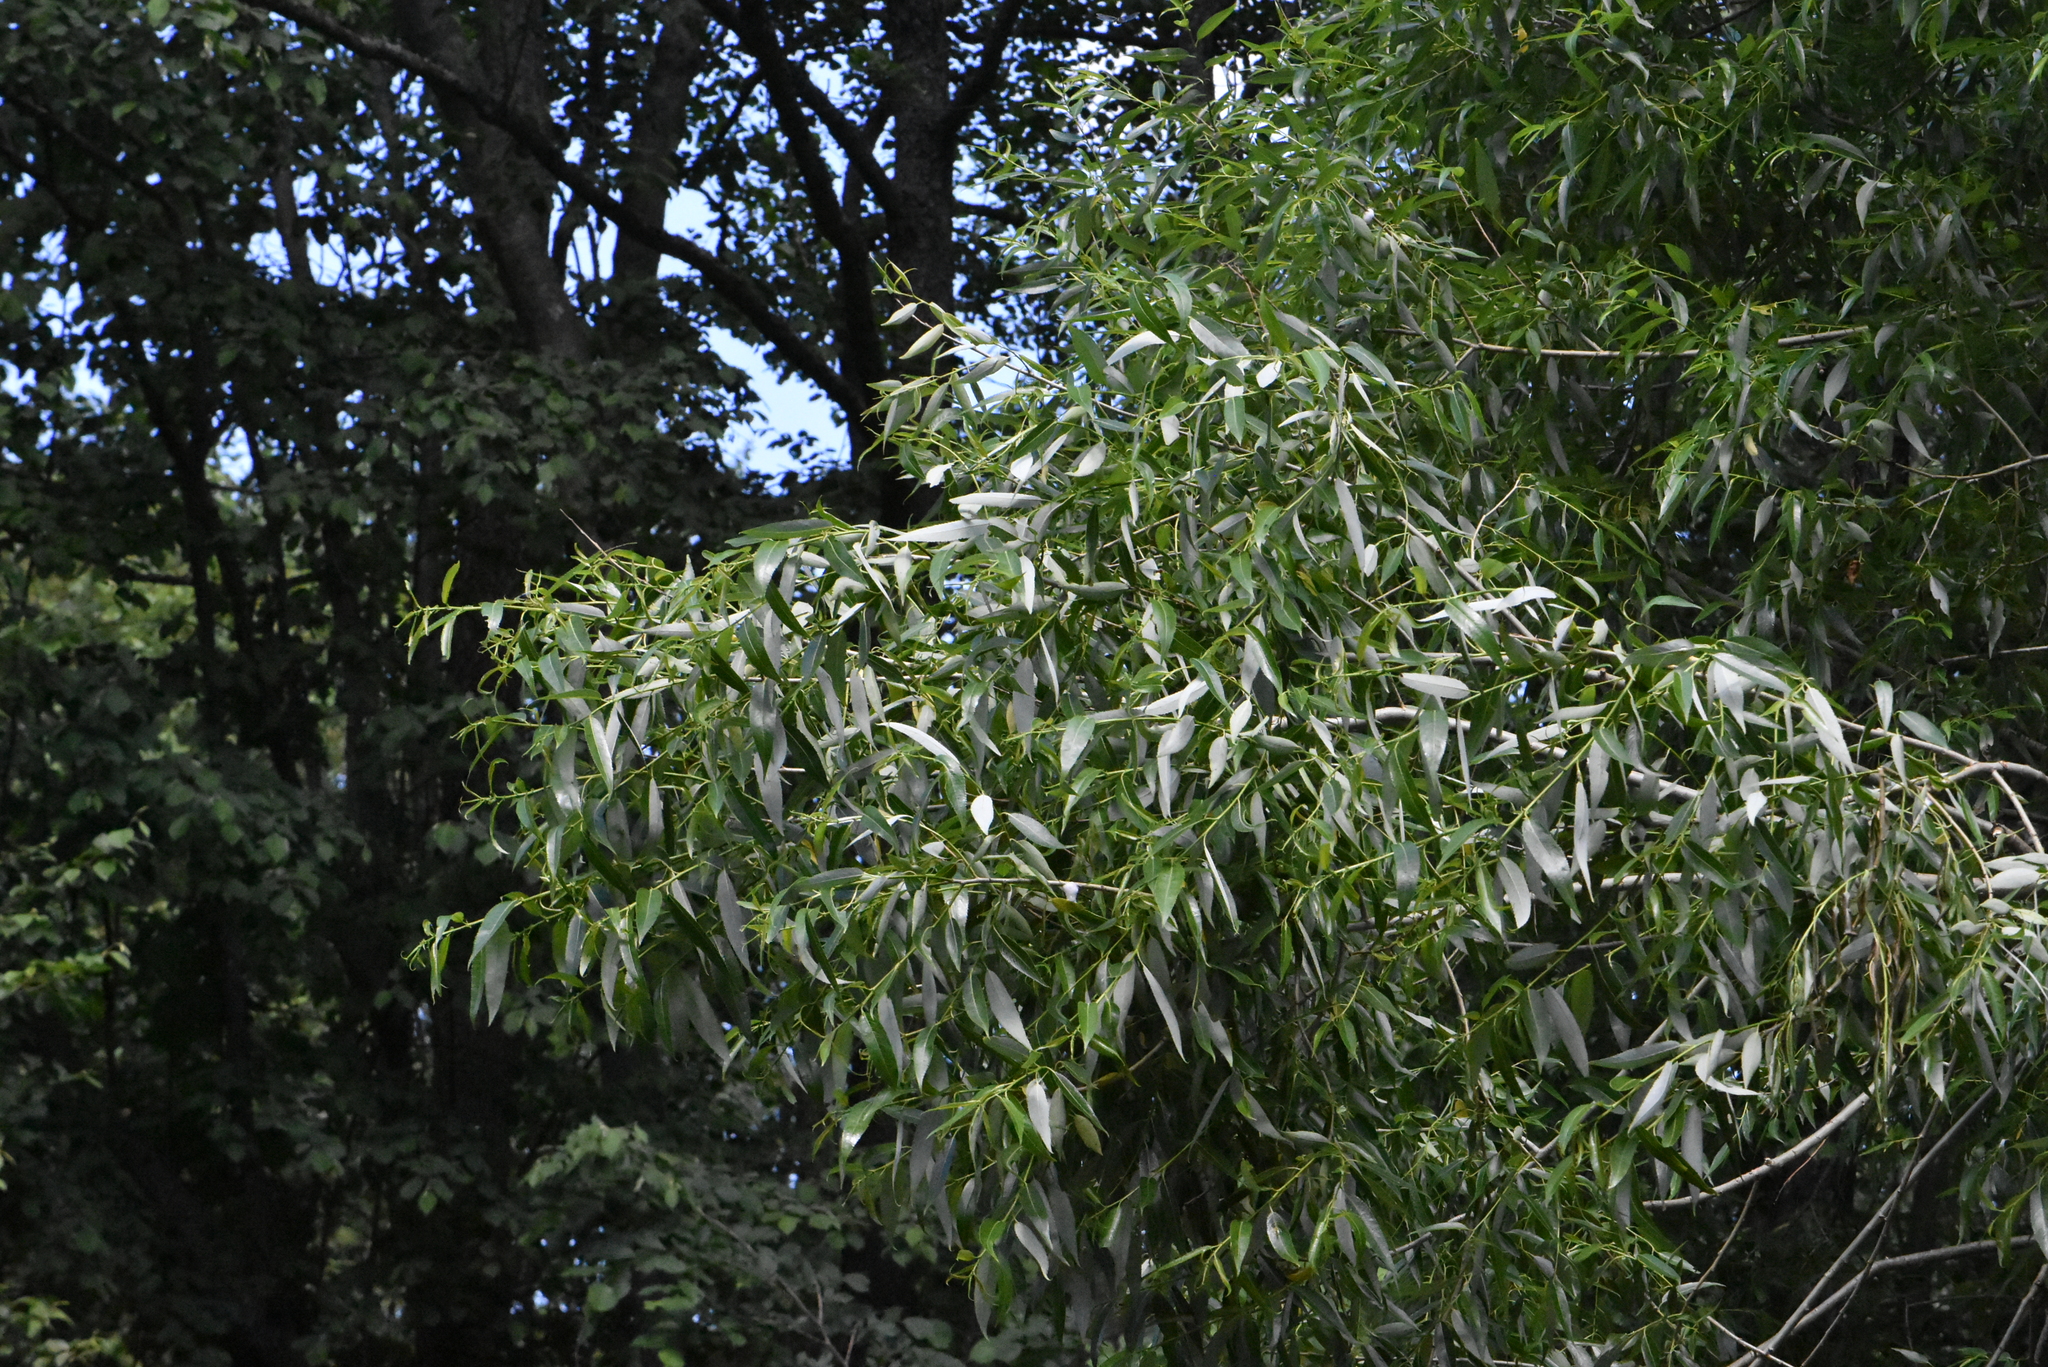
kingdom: Plantae
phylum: Tracheophyta
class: Magnoliopsida
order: Malpighiales
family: Salicaceae
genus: Salix
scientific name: Salix alba
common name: White willow
